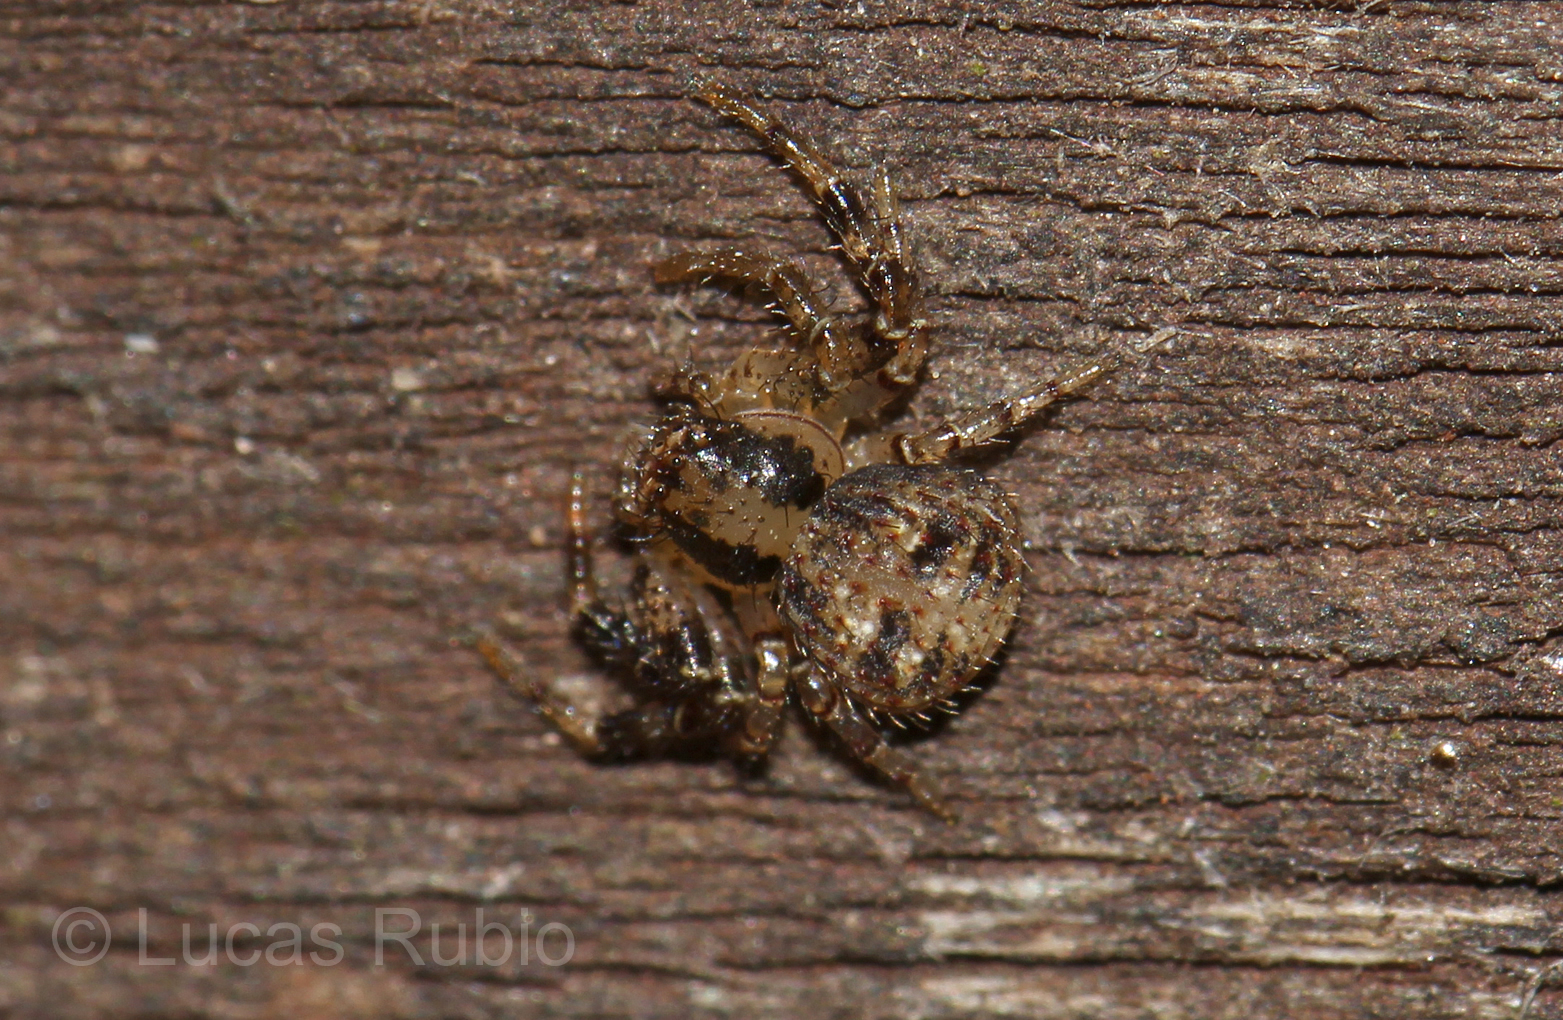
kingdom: Animalia
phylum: Arthropoda
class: Arachnida
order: Araneae
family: Thomisidae
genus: Synaemops
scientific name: Synaemops pugilator
